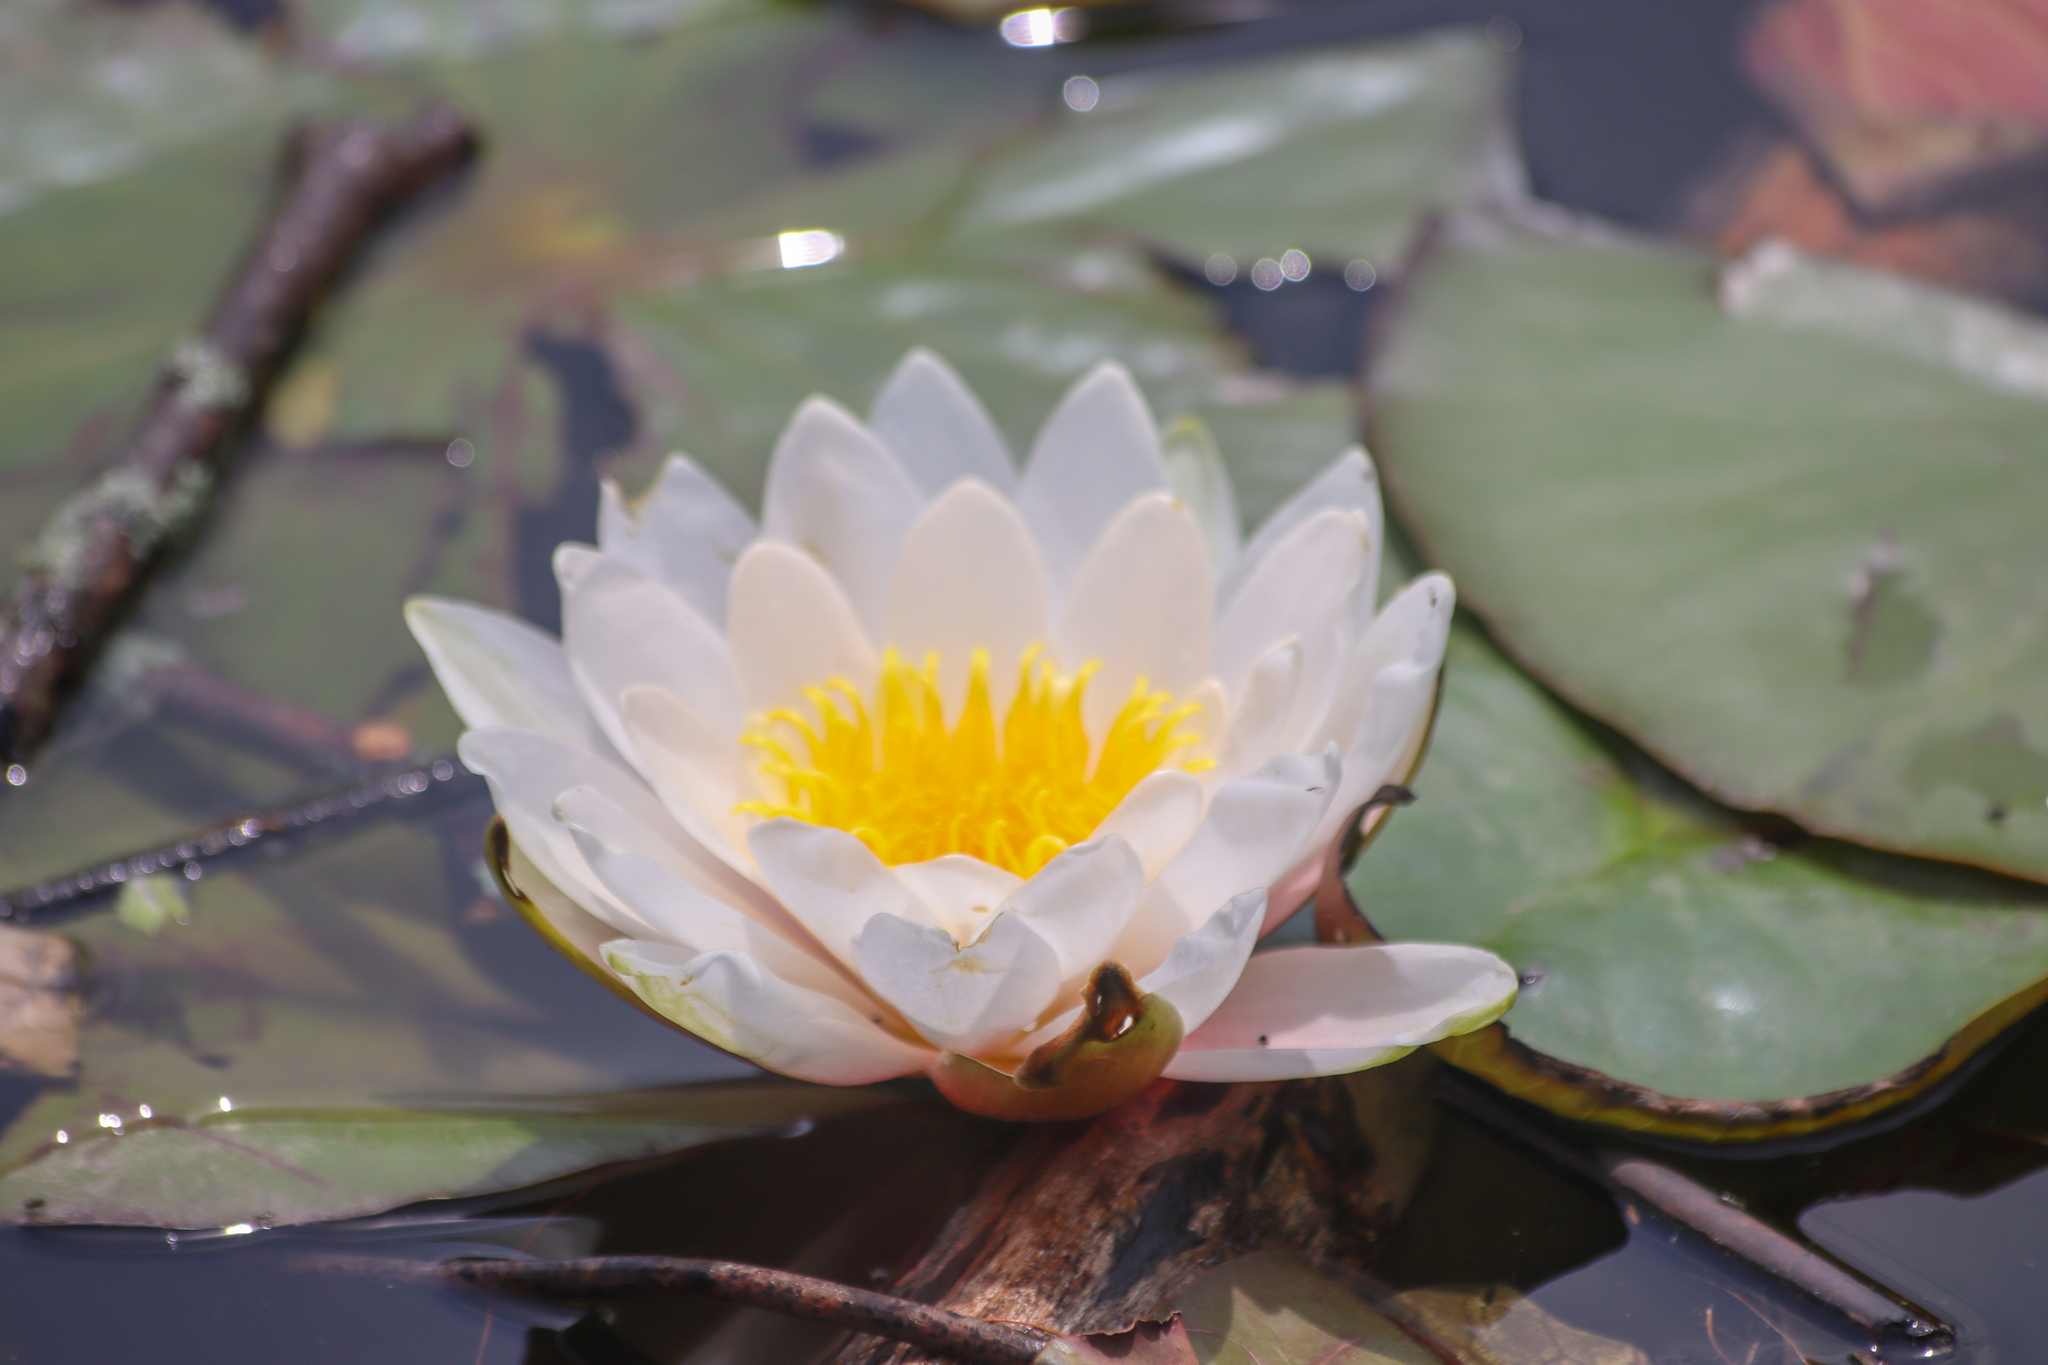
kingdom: Plantae
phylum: Tracheophyta
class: Magnoliopsida
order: Nymphaeales
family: Nymphaeaceae
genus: Nymphaea
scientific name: Nymphaea odorata
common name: Fragrant water-lily
